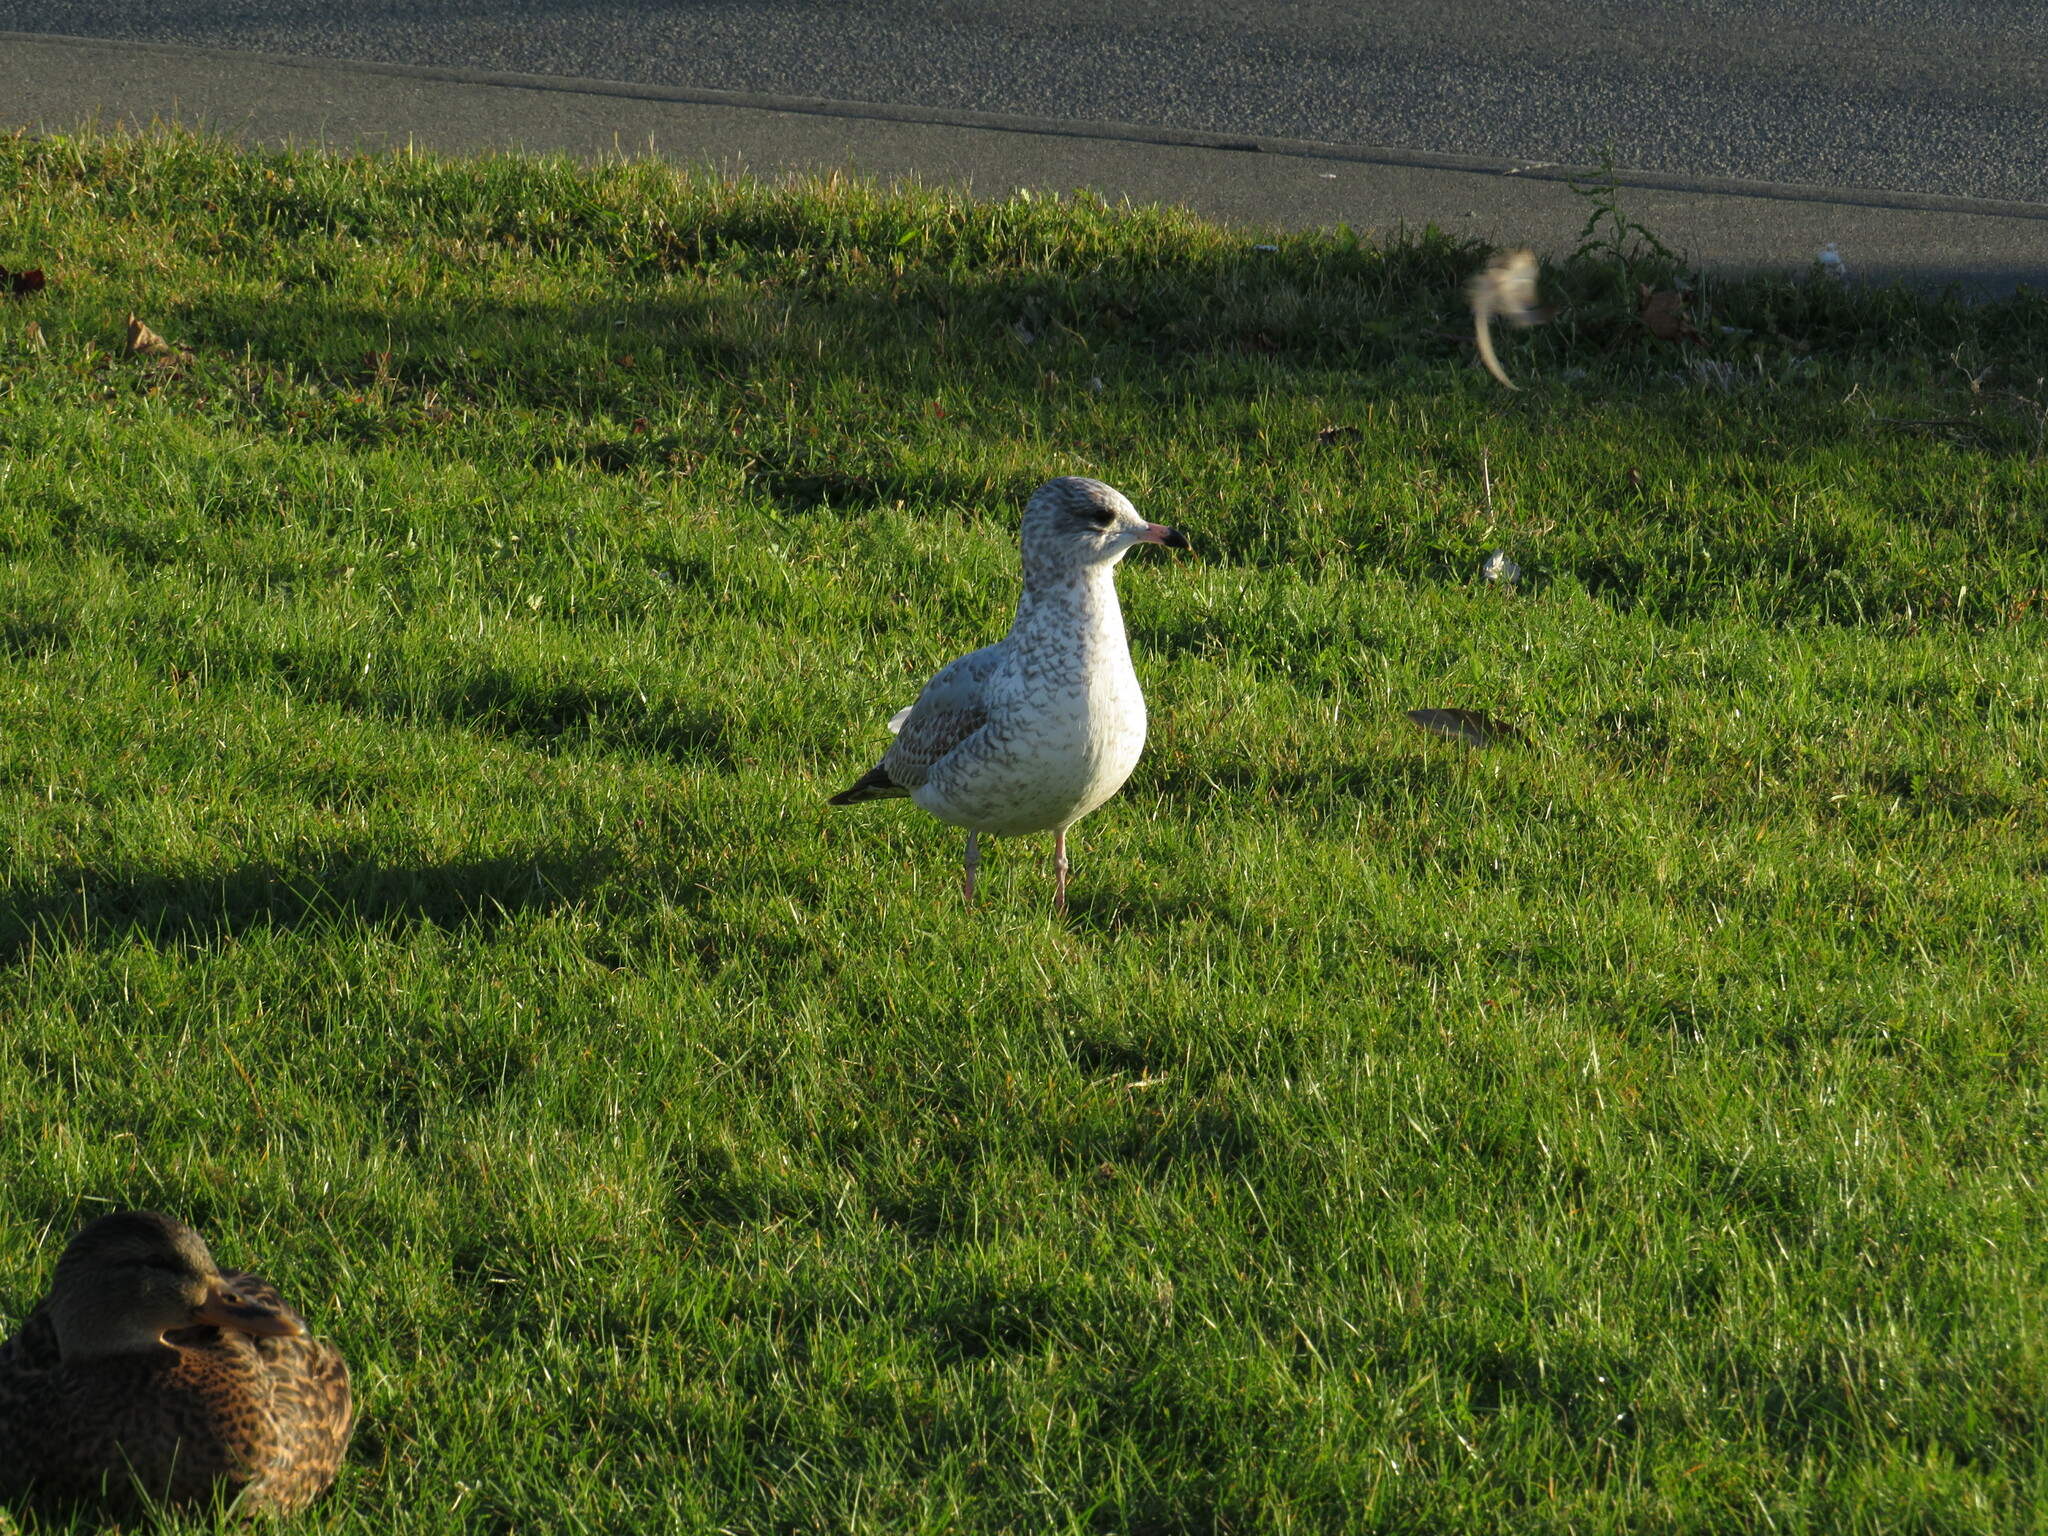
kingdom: Animalia
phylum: Chordata
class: Aves
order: Charadriiformes
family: Laridae
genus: Larus
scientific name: Larus delawarensis
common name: Ring-billed gull
